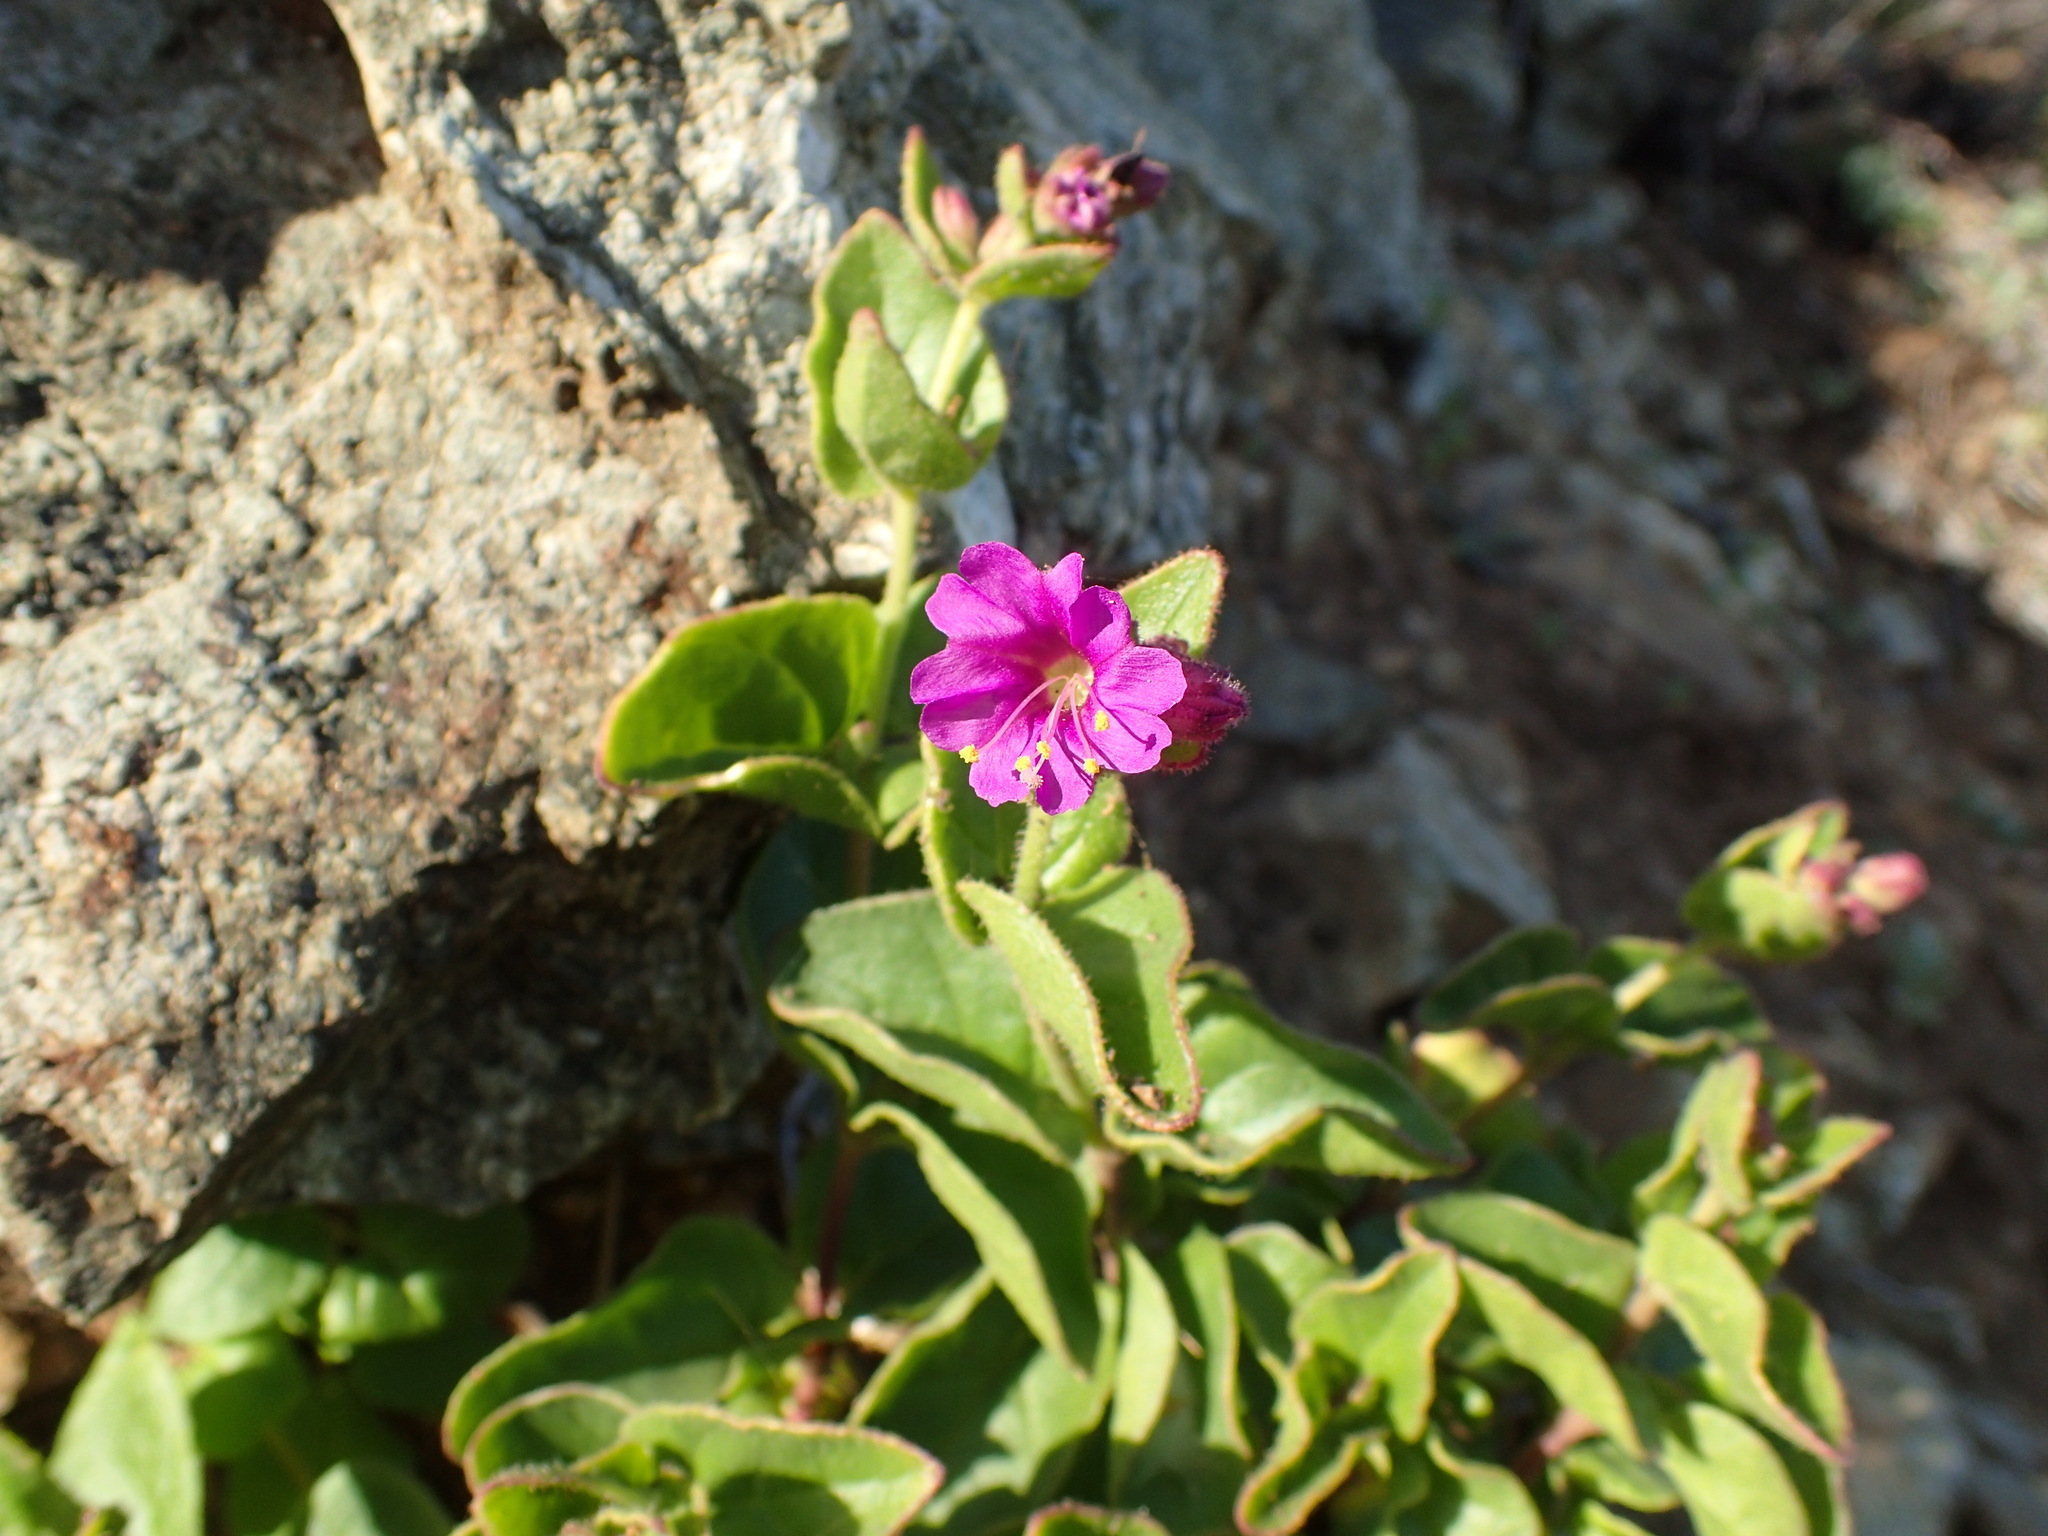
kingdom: Plantae
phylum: Tracheophyta
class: Magnoliopsida
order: Caryophyllales
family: Nyctaginaceae
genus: Mirabilis
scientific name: Mirabilis laevis
